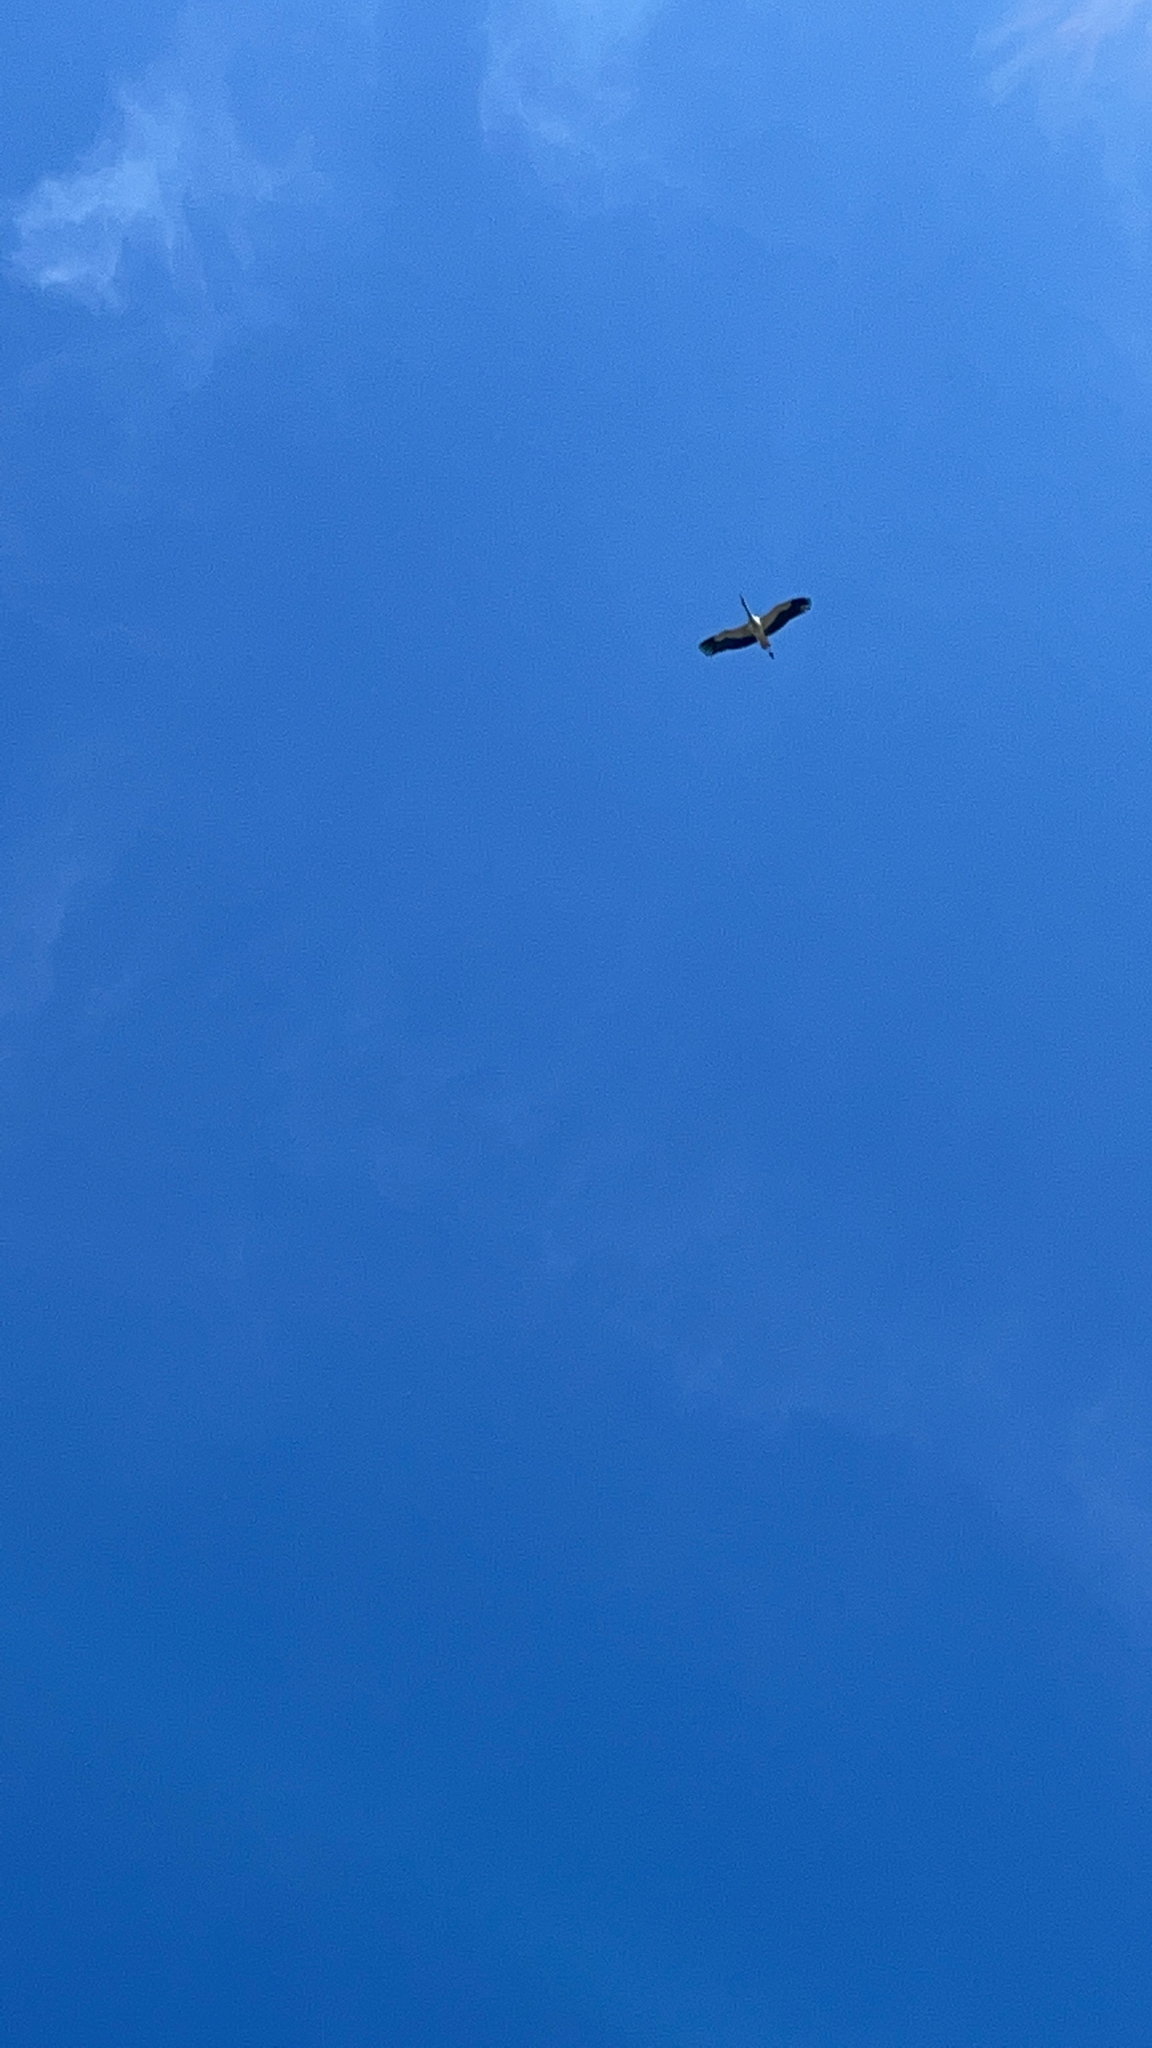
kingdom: Animalia
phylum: Chordata
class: Aves
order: Ciconiiformes
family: Ciconiidae
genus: Ciconia
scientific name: Ciconia ciconia
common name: White stork
